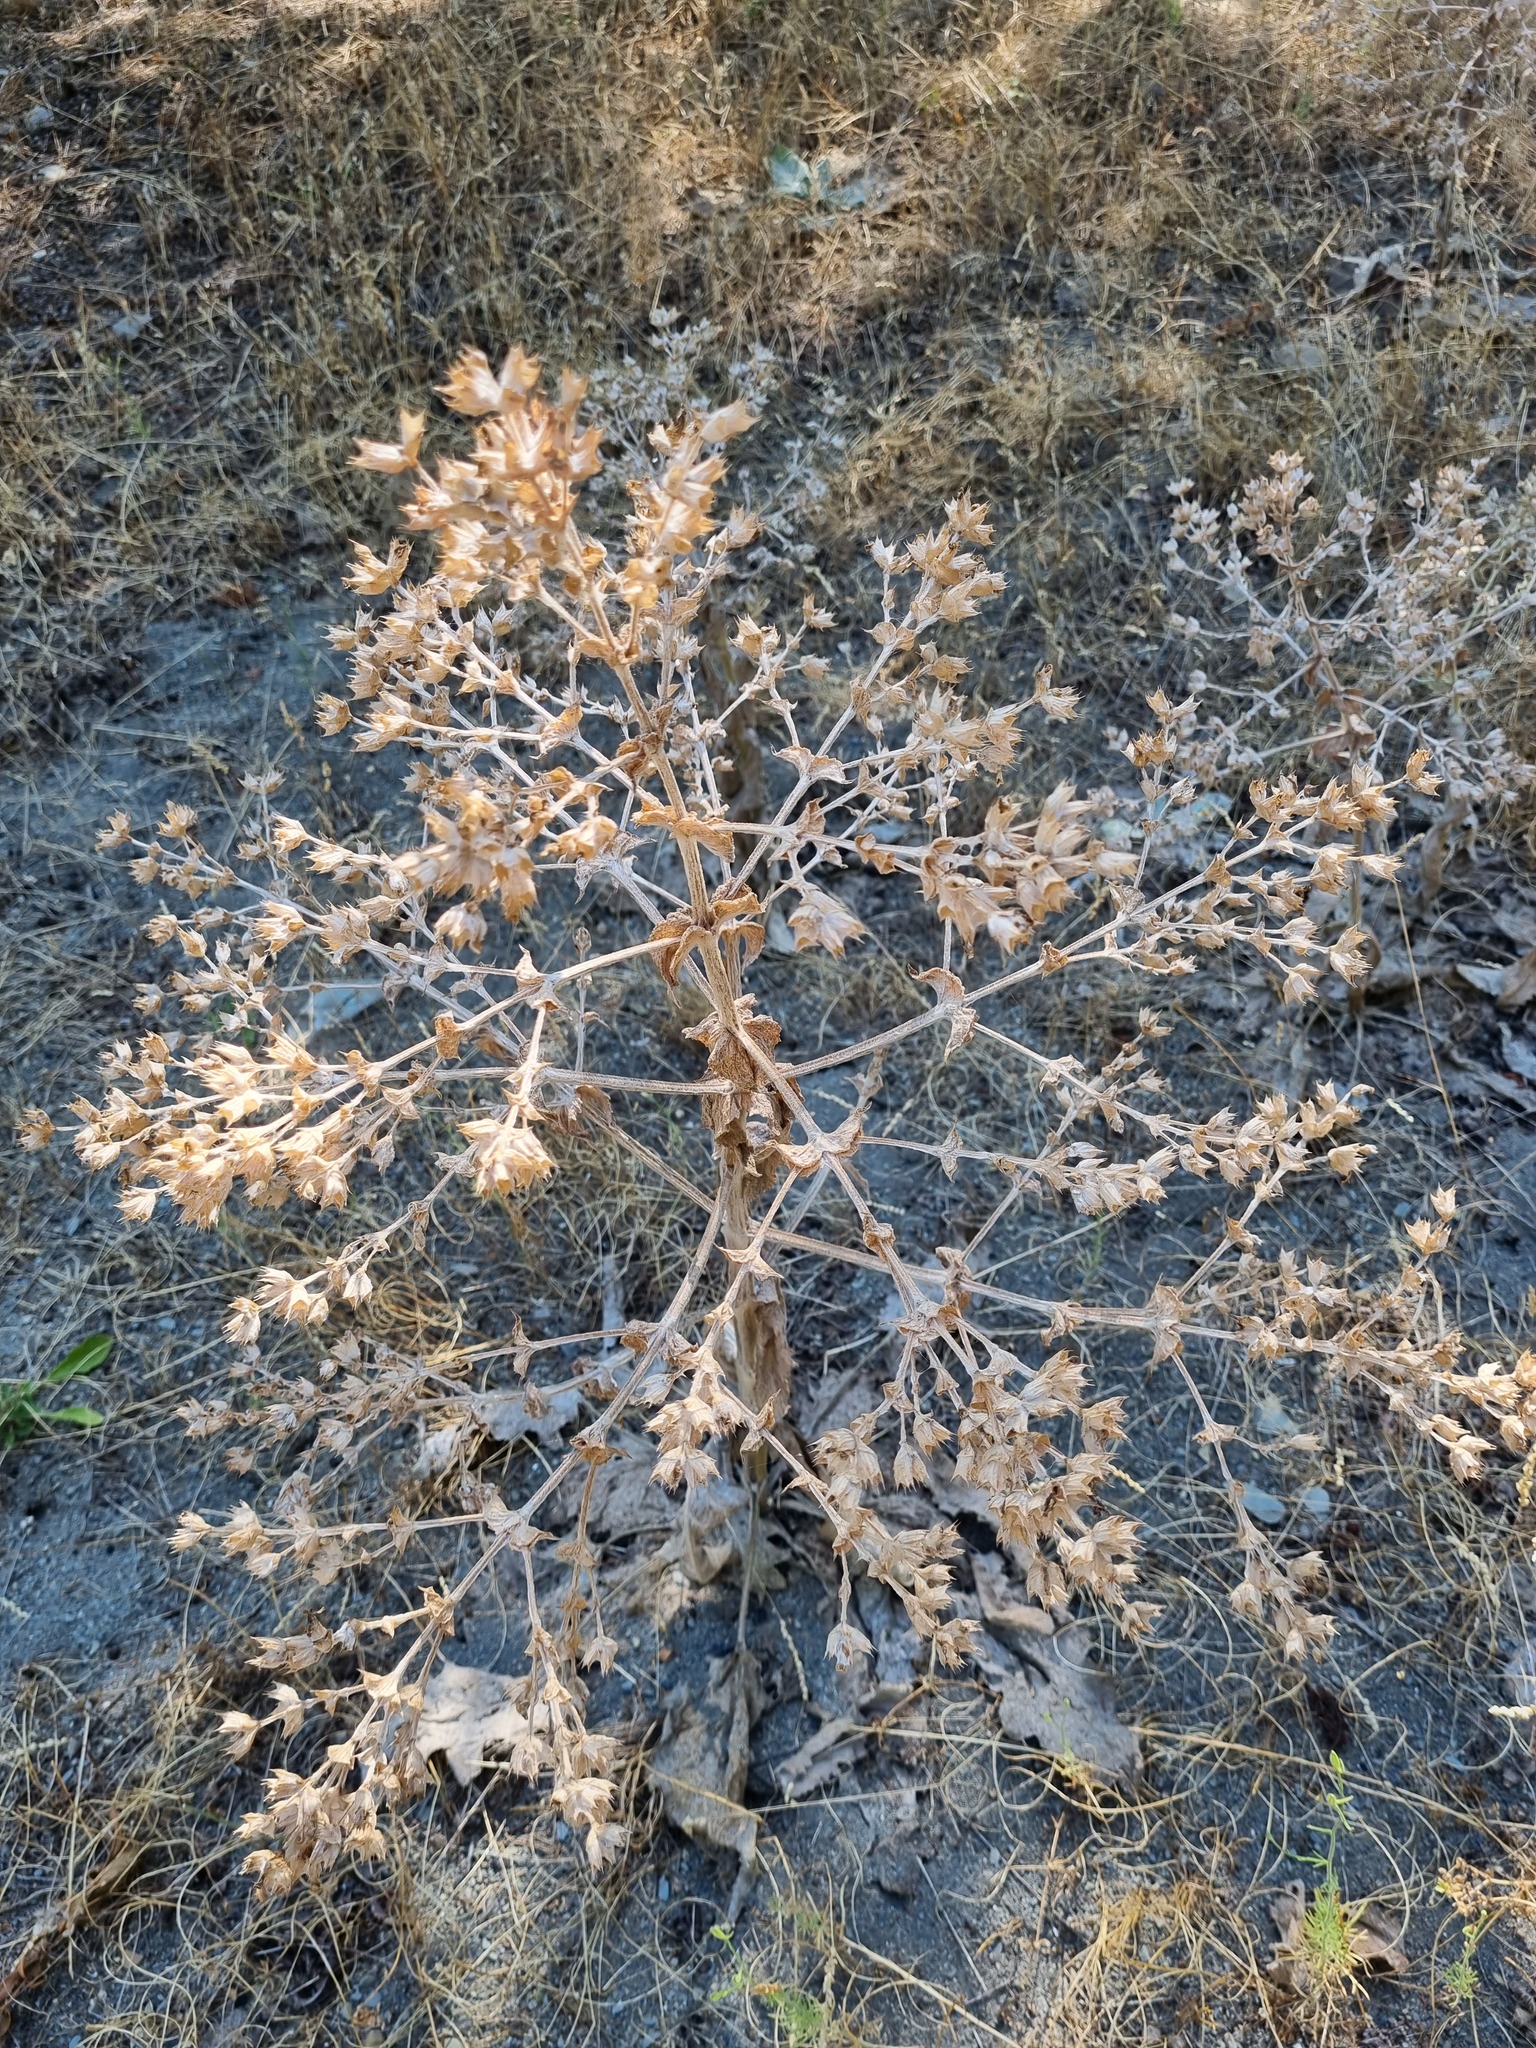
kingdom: Plantae
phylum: Tracheophyta
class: Magnoliopsida
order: Lamiales
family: Lamiaceae
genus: Salvia
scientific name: Salvia aethiopis
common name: Mediterranean sage
